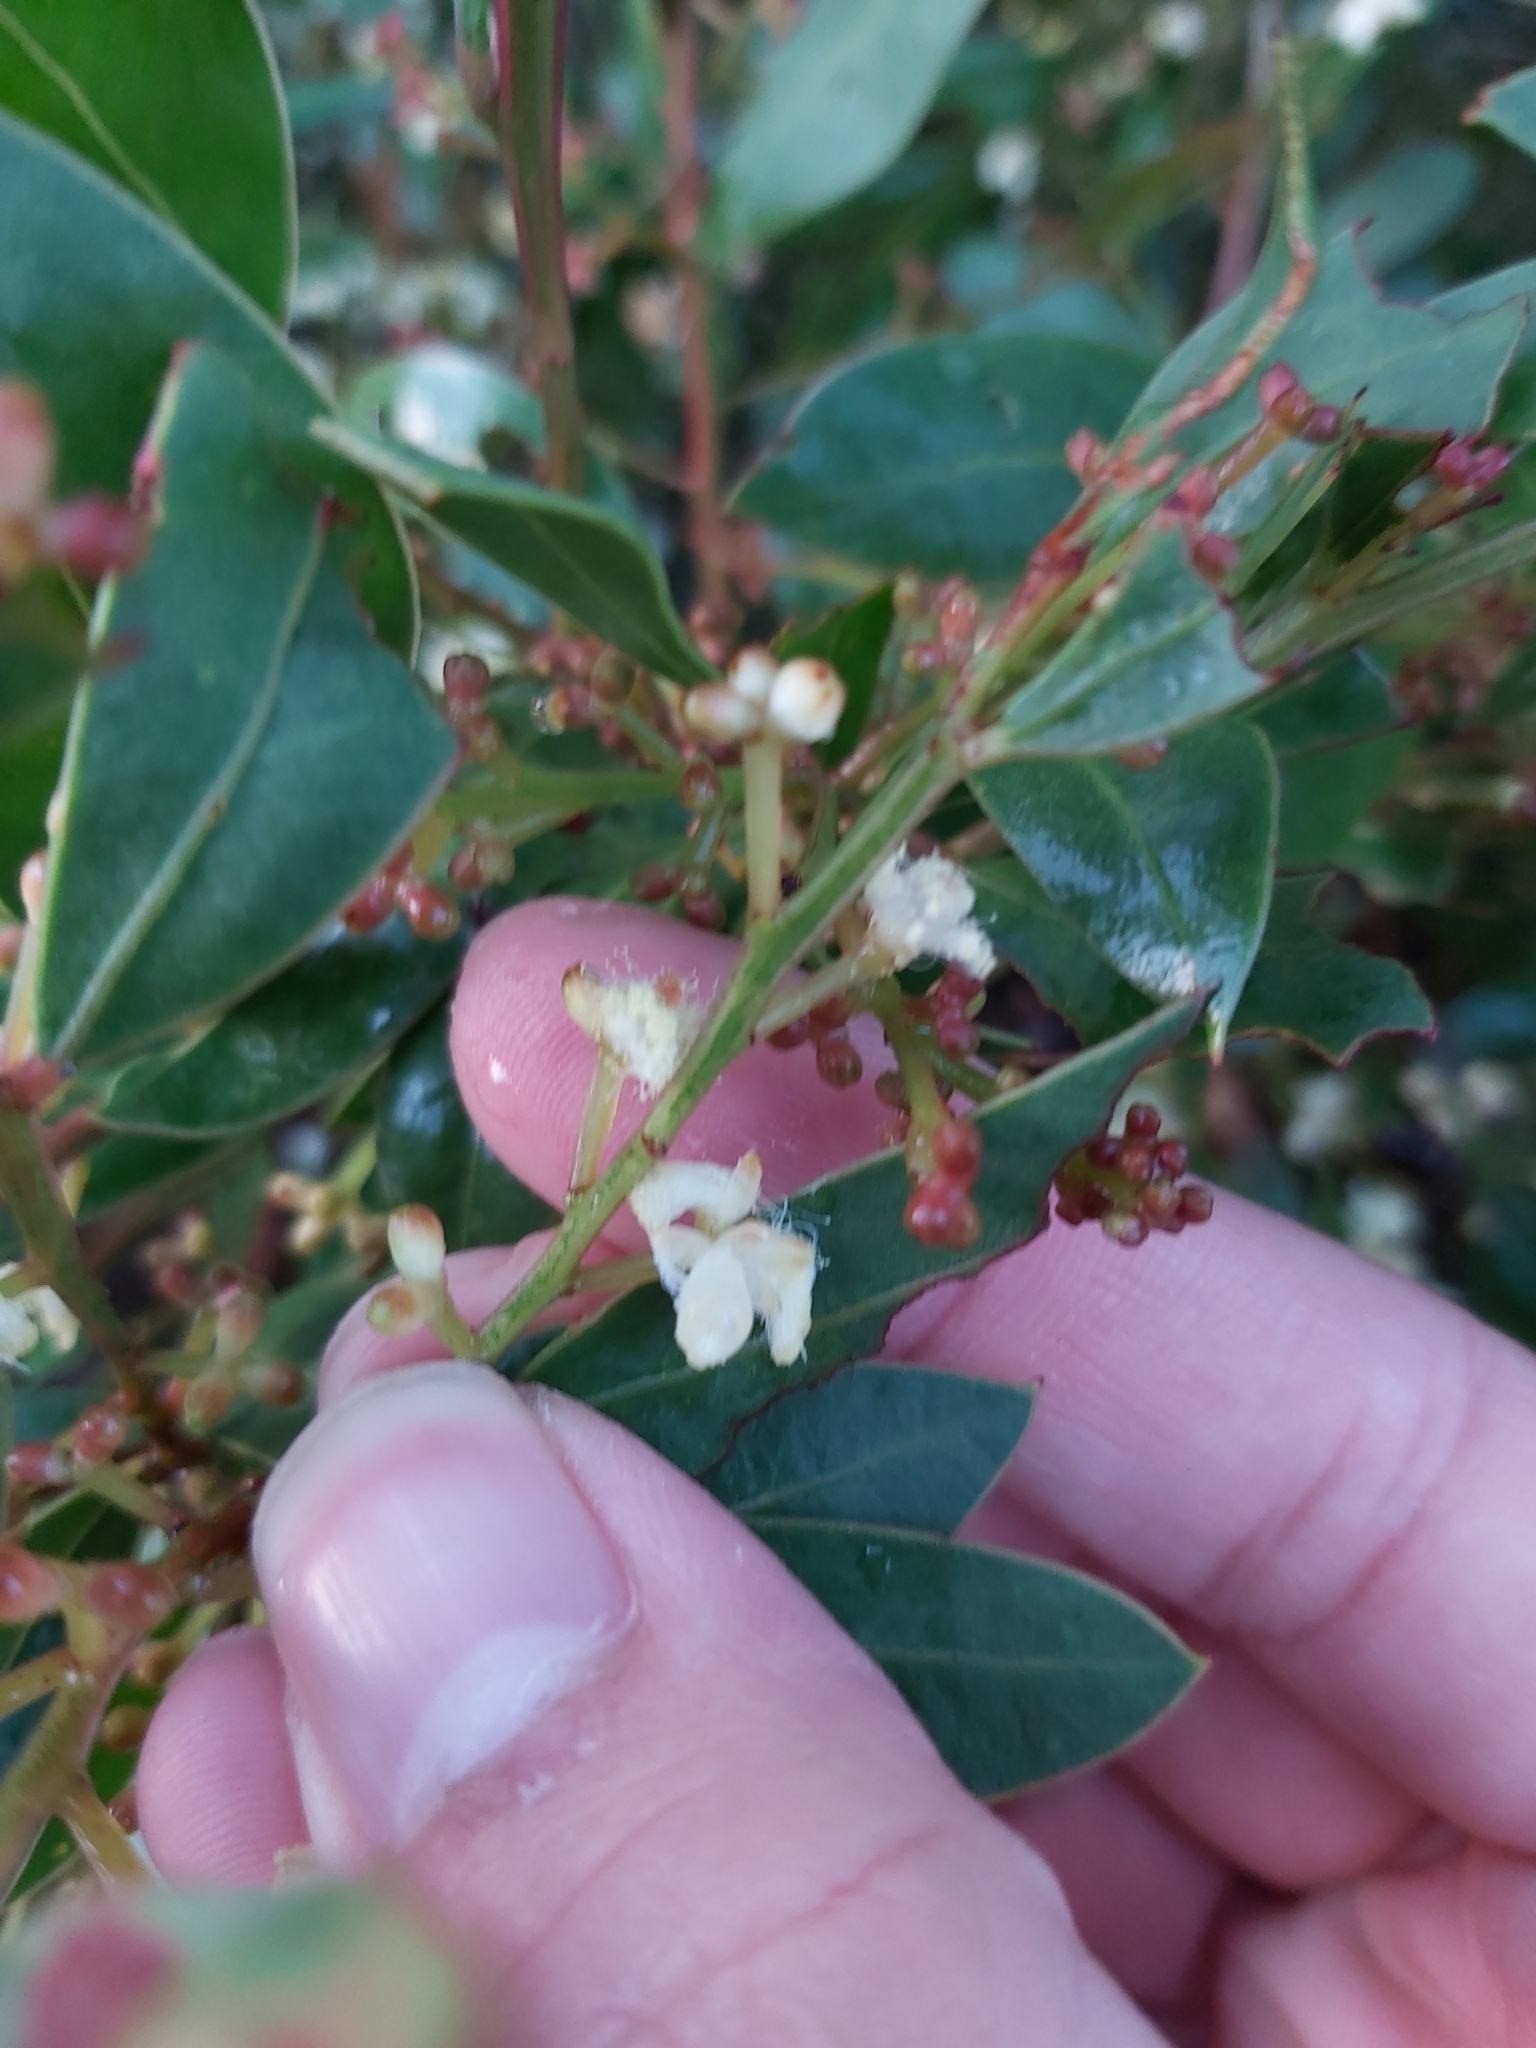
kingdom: Plantae
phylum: Tracheophyta
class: Magnoliopsida
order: Fabales
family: Fabaceae
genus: Acacia
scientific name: Acacia myrtifolia
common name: Myrtle wattle
